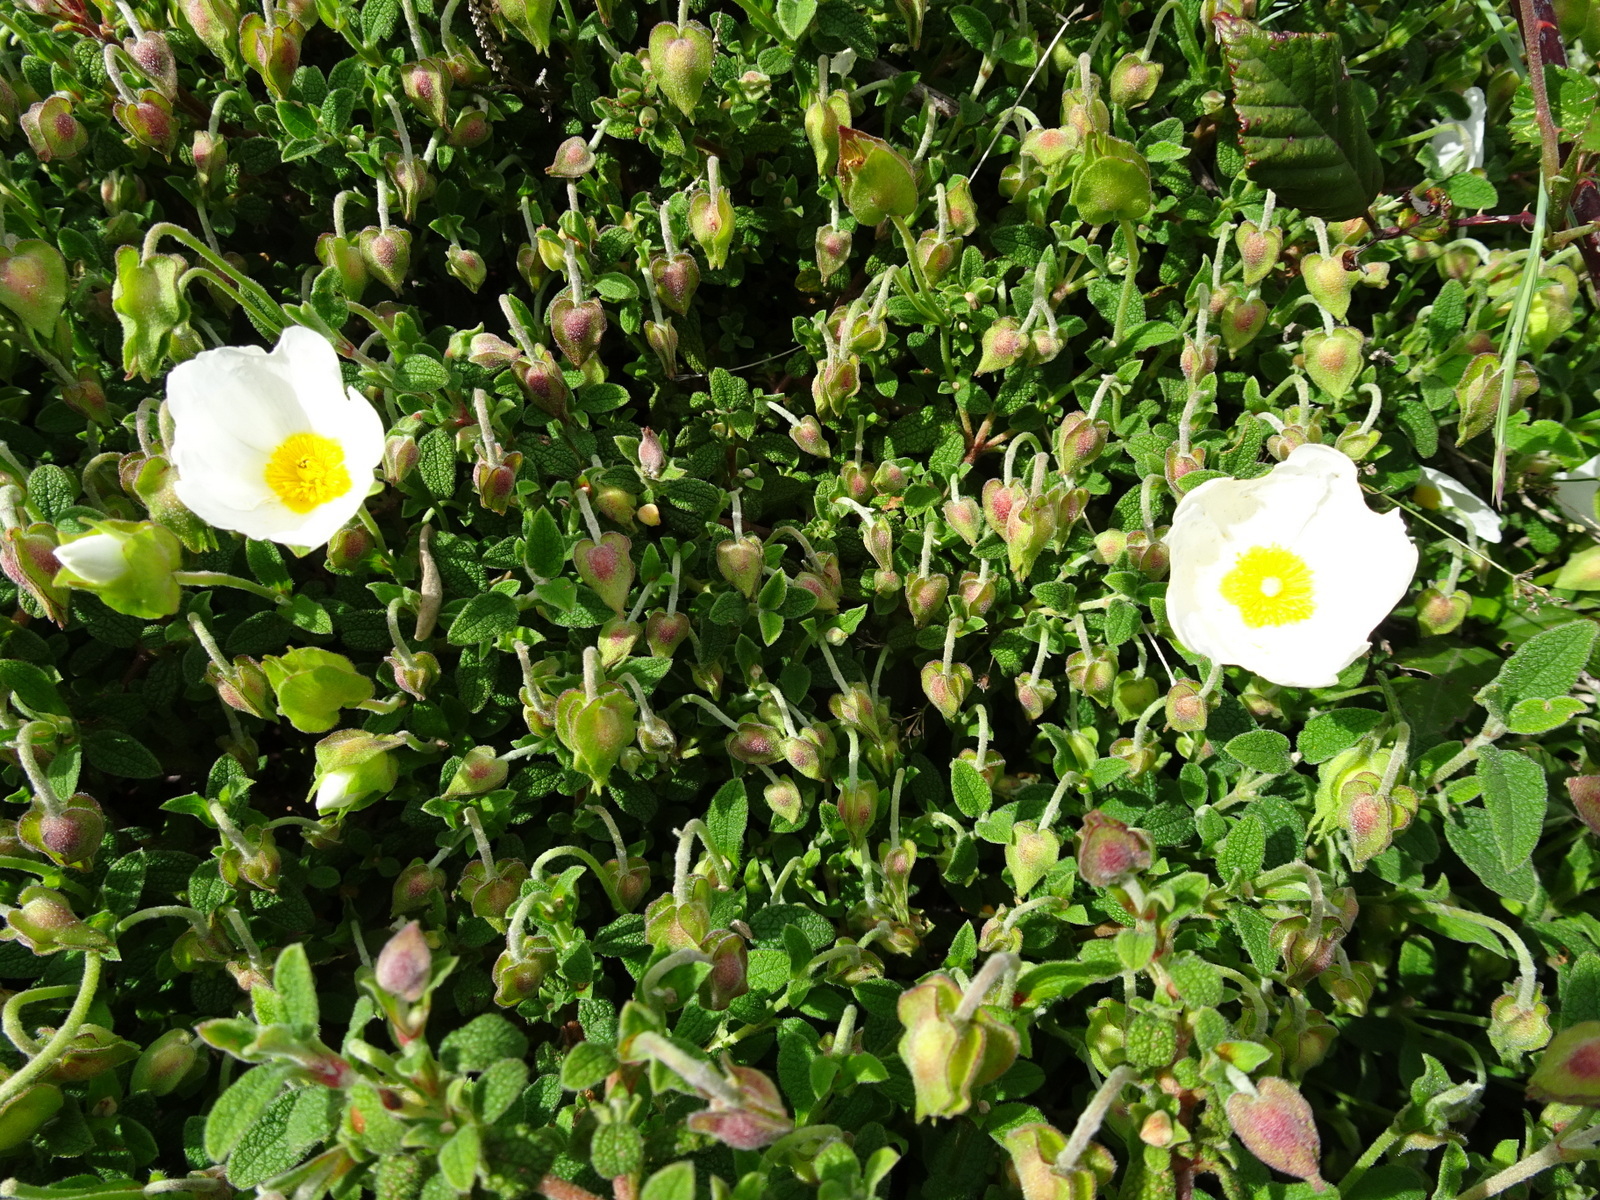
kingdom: Plantae
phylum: Tracheophyta
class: Magnoliopsida
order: Malvales
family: Cistaceae
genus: Cistus
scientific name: Cistus salviifolius
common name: Salvia cistus
